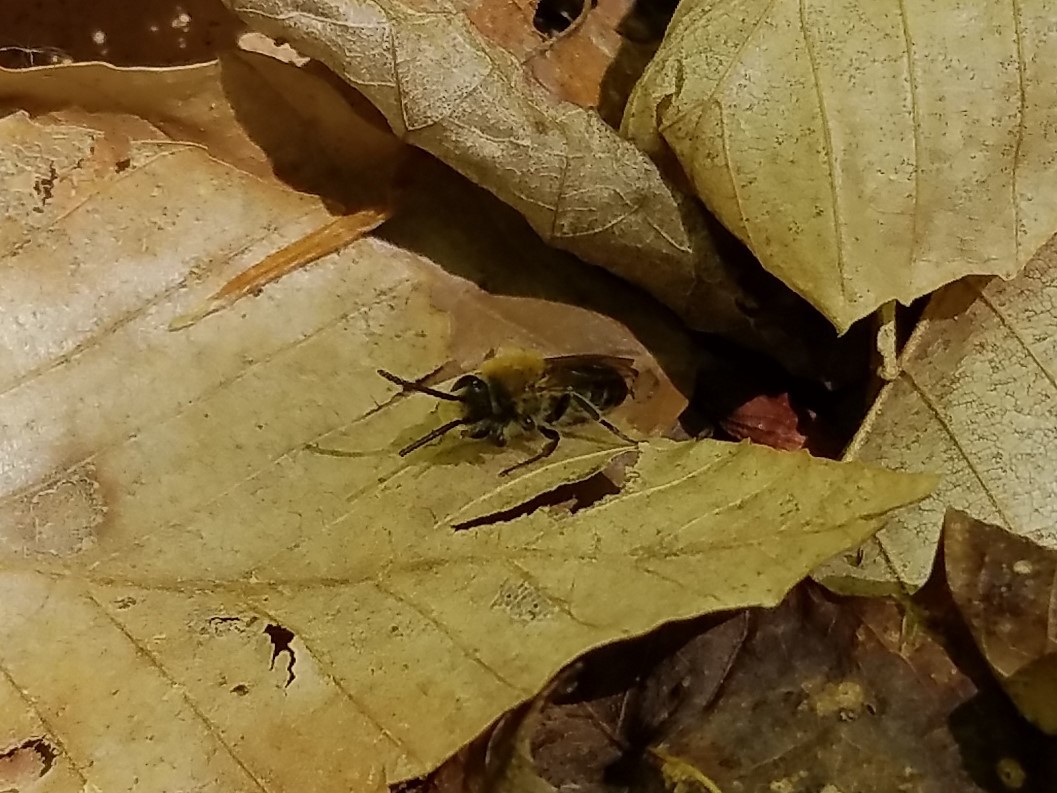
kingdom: Animalia
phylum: Arthropoda
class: Insecta
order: Hymenoptera
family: Colletidae
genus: Colletes
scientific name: Colletes inaequalis
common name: Unequal cellophane bee
